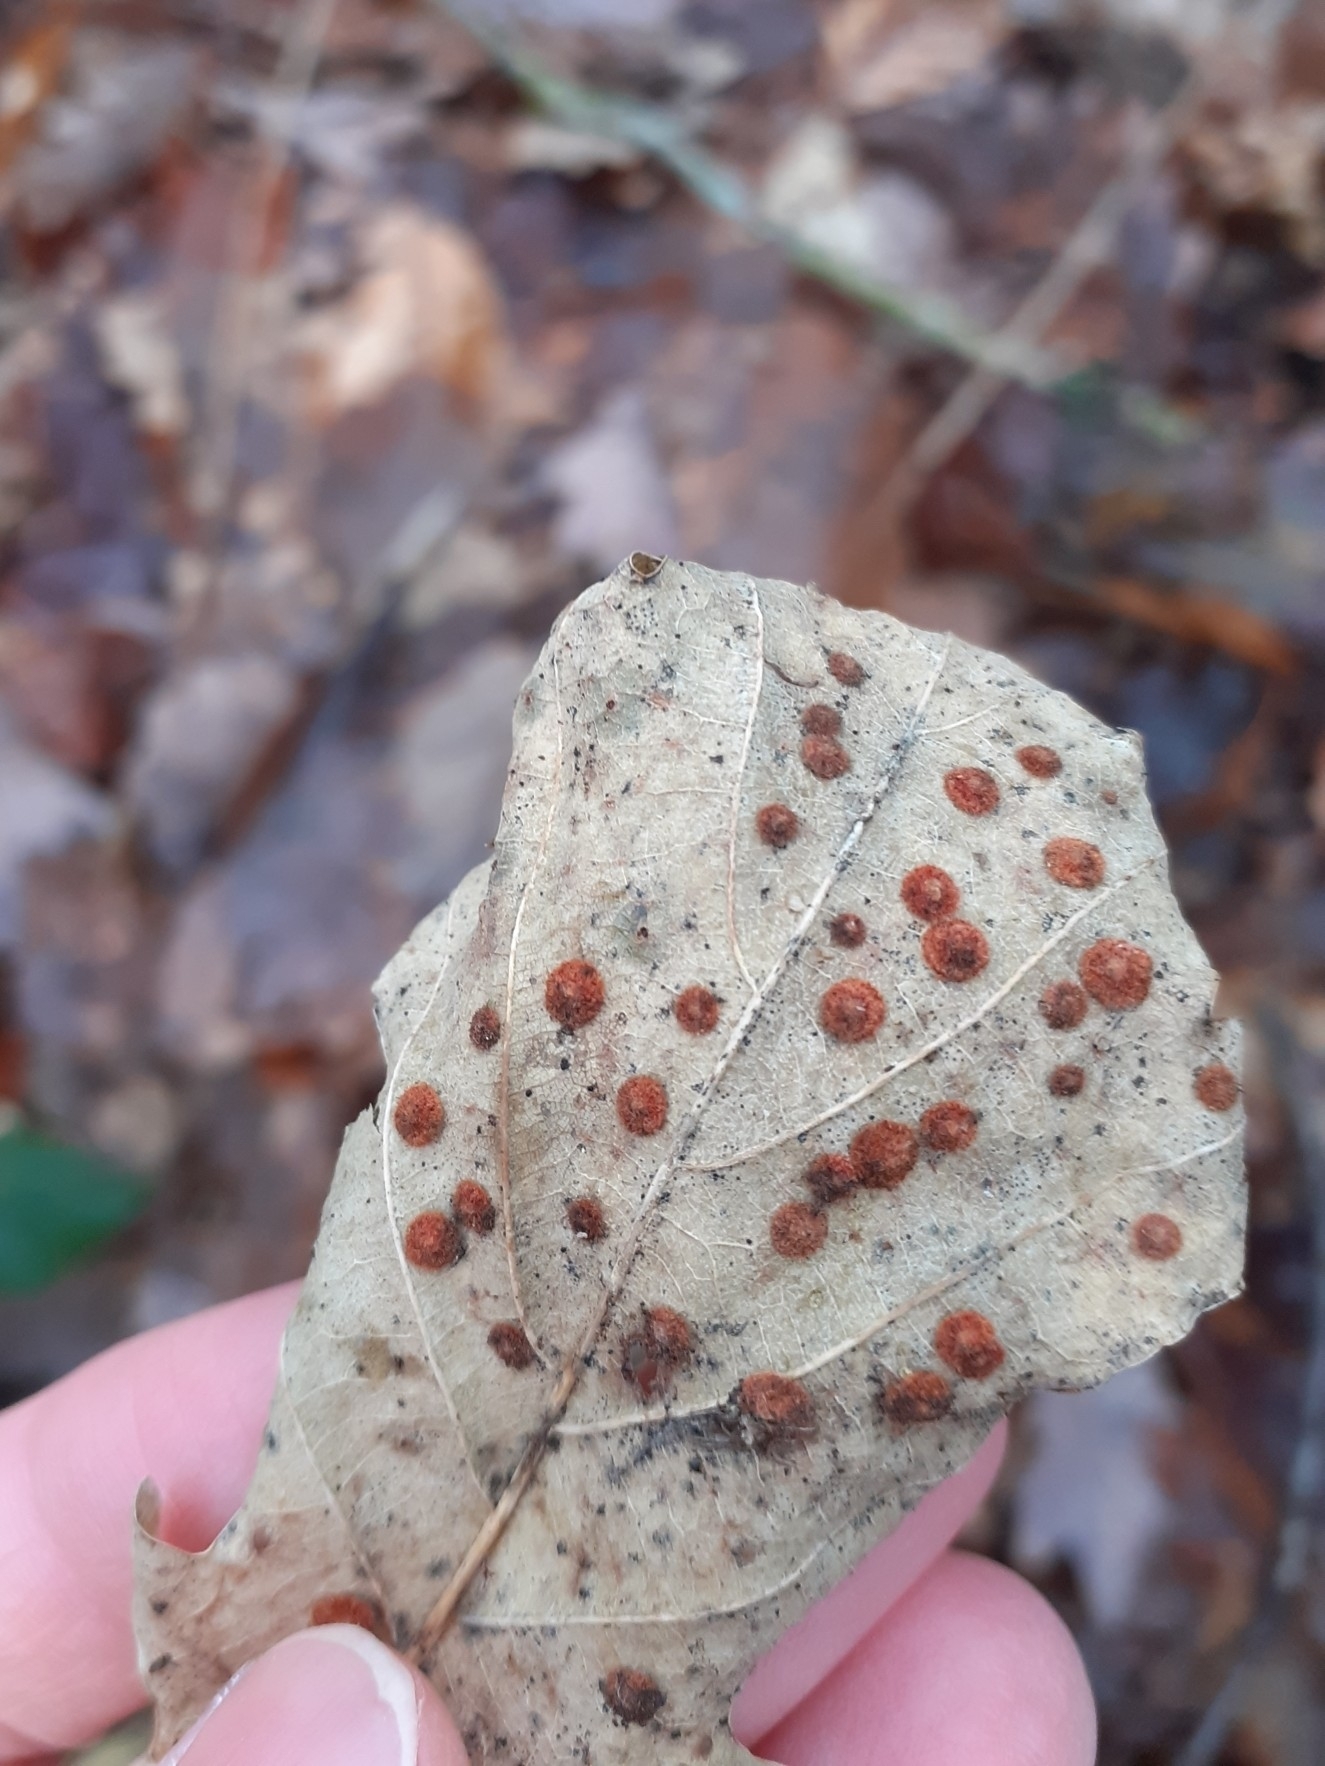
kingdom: Animalia
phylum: Arthropoda
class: Insecta
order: Hymenoptera
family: Cynipidae
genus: Neuroterus
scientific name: Neuroterus quercusbaccarum
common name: Common spangle gall
